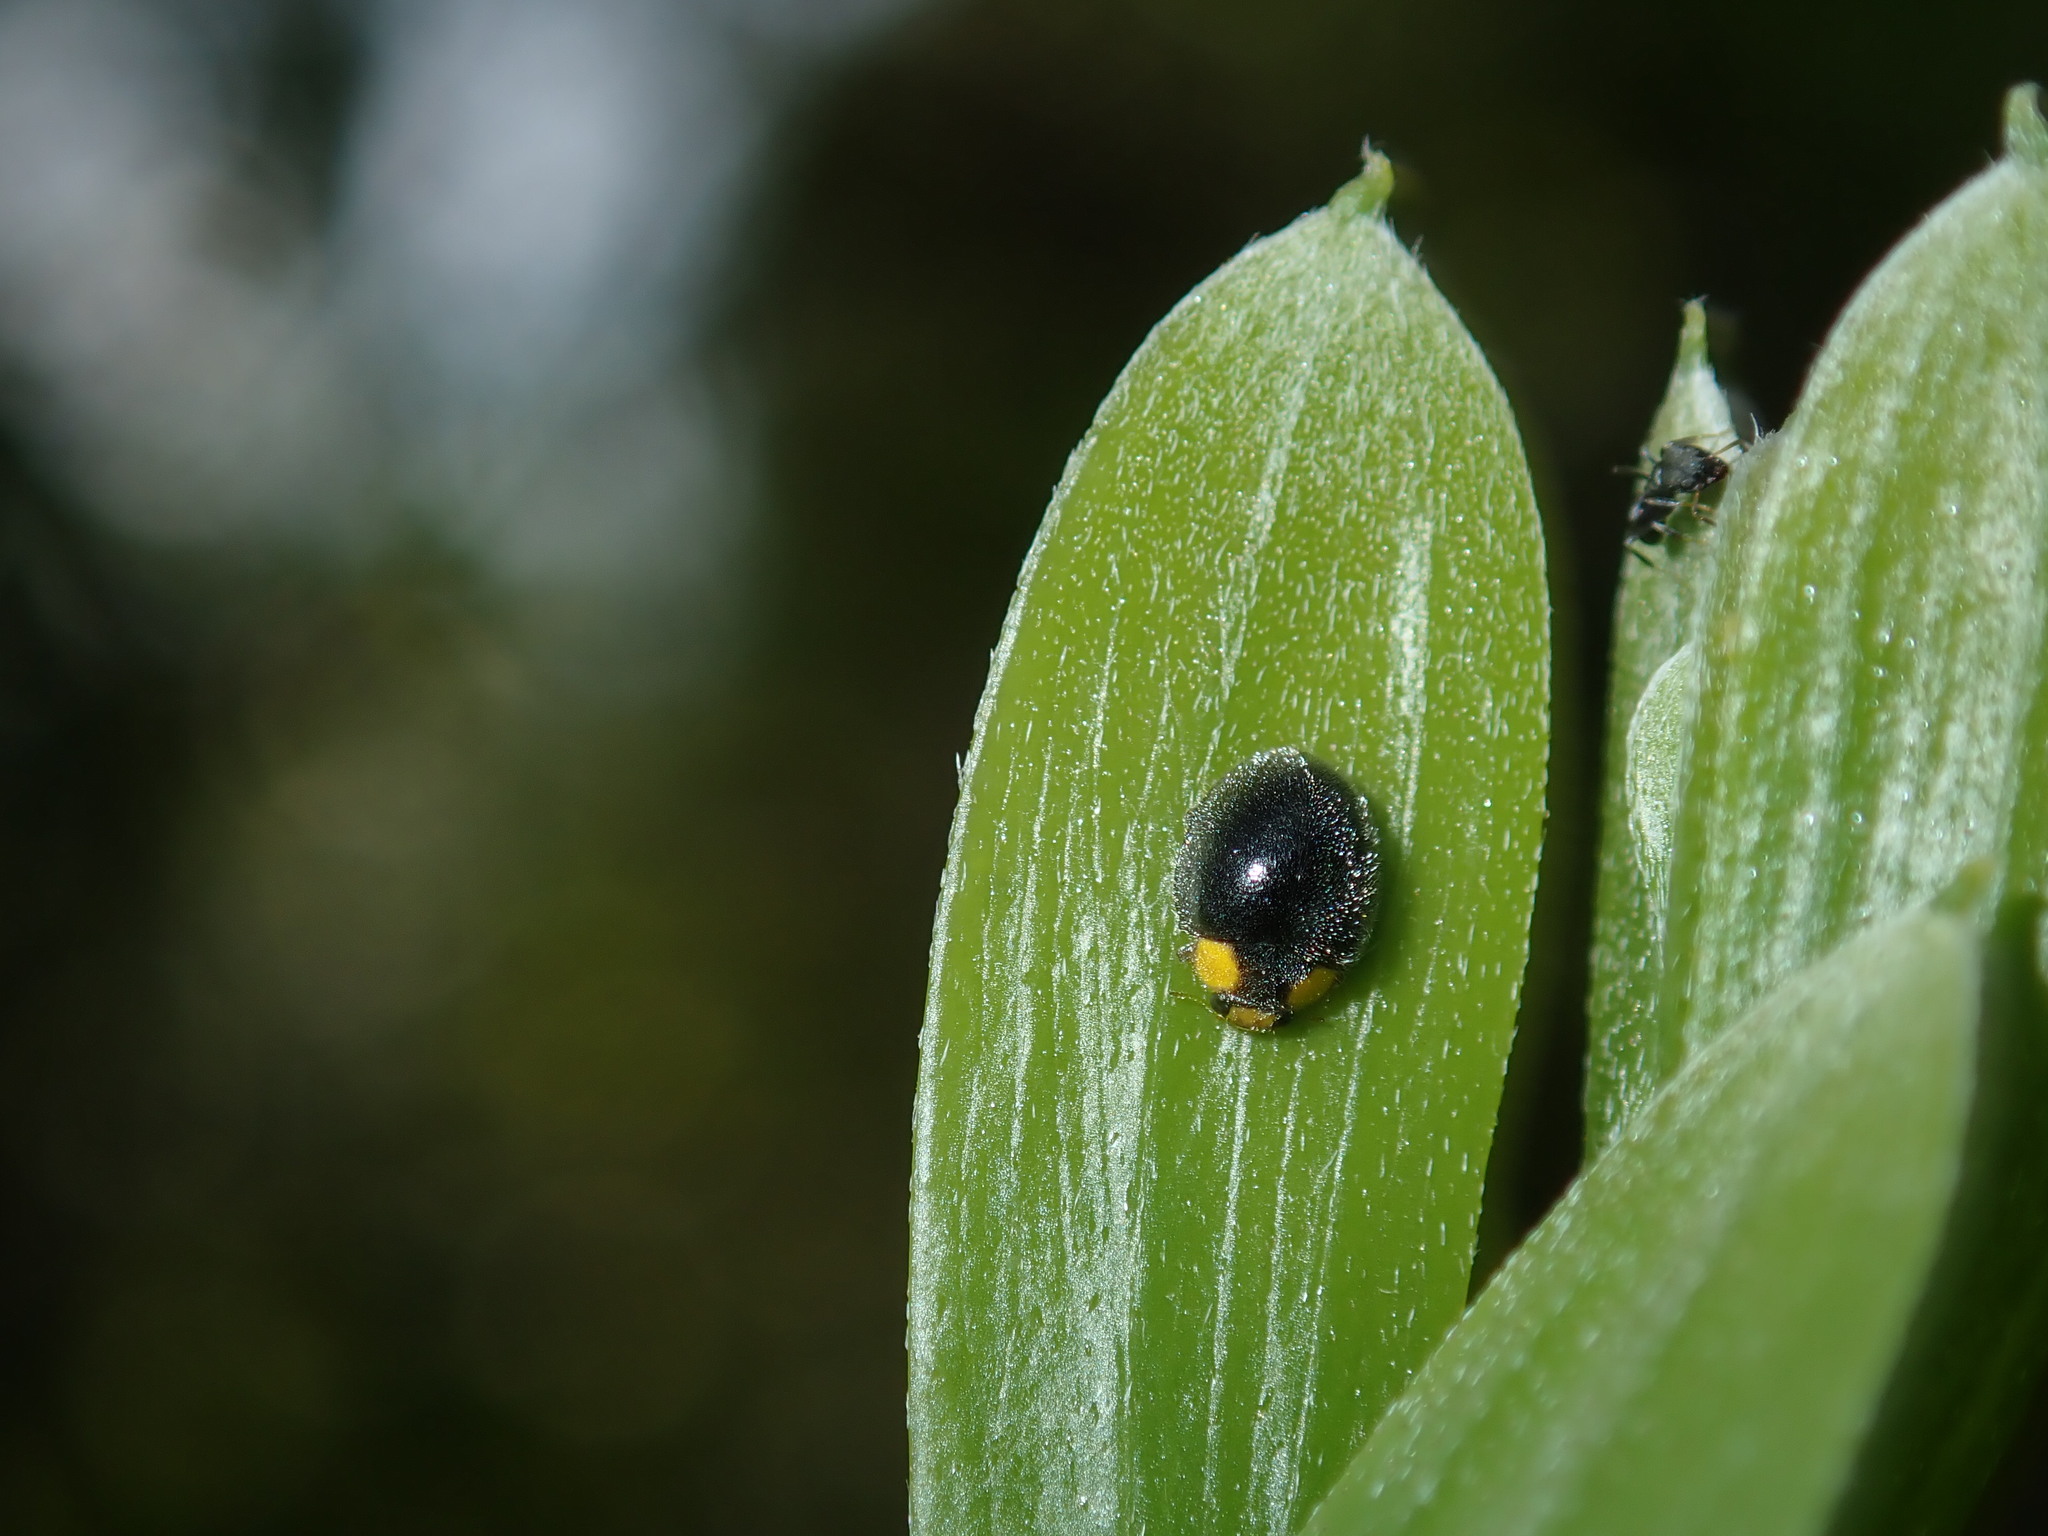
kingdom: Animalia
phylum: Arthropoda
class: Insecta
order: Coleoptera
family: Coccinellidae
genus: Scymnodes
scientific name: Scymnodes lividigaster
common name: Yellowshouldered lady beetle
